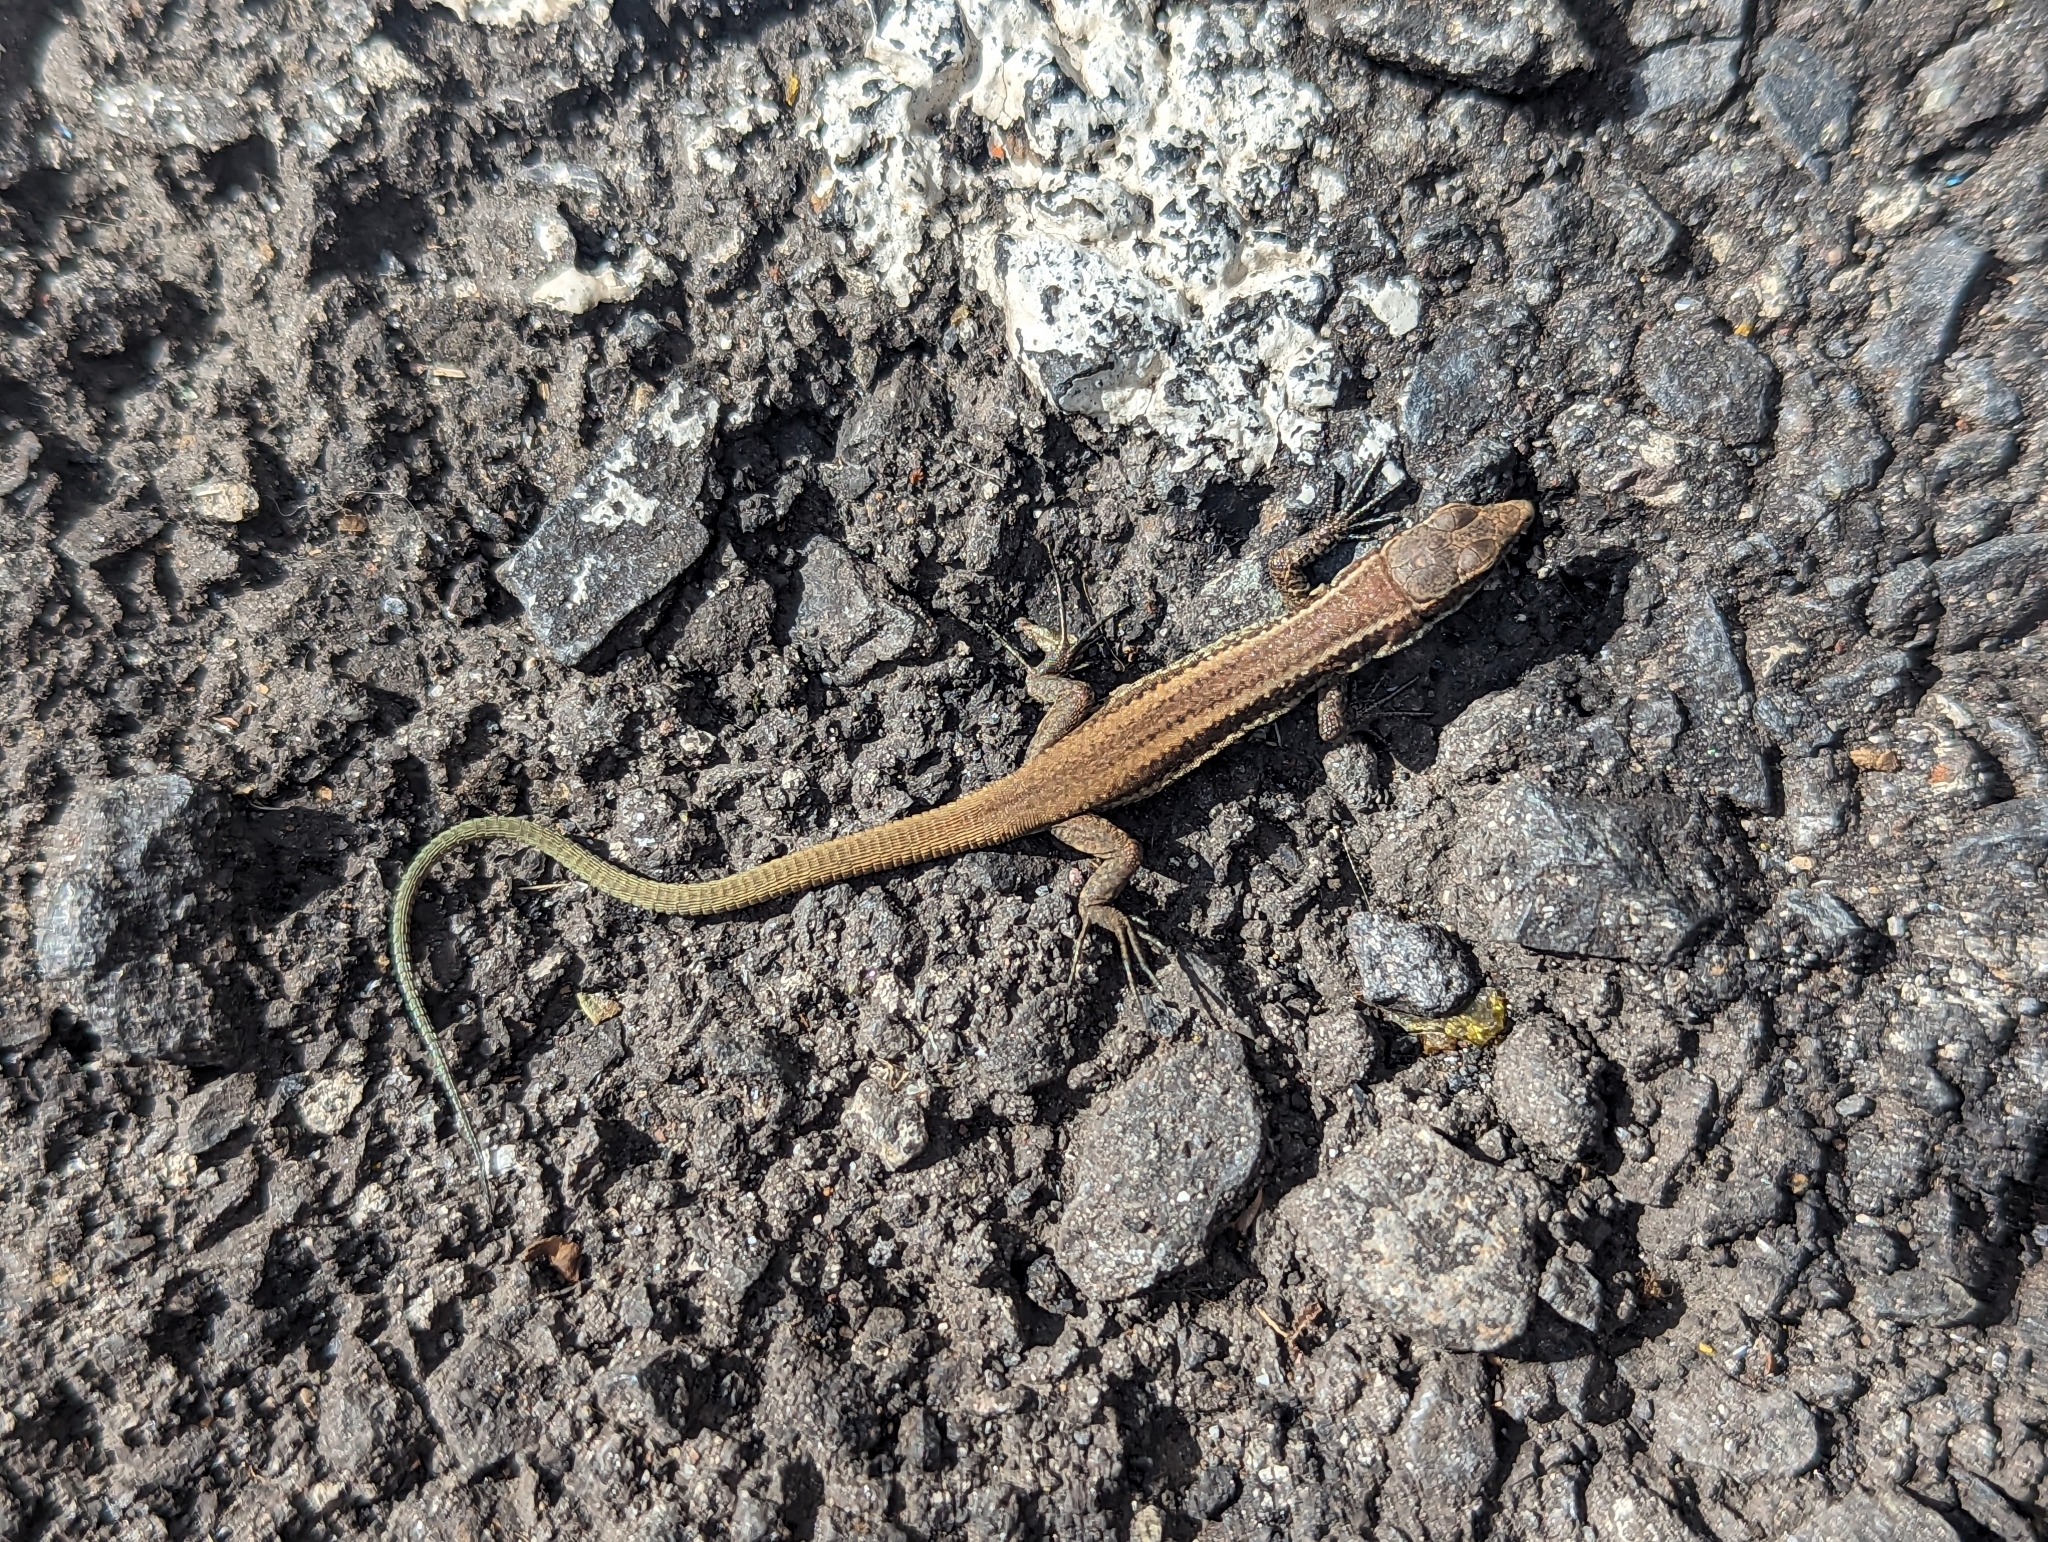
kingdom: Animalia
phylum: Chordata
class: Squamata
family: Lacertidae
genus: Teira
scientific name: Teira dugesii
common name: Madeira lizard
